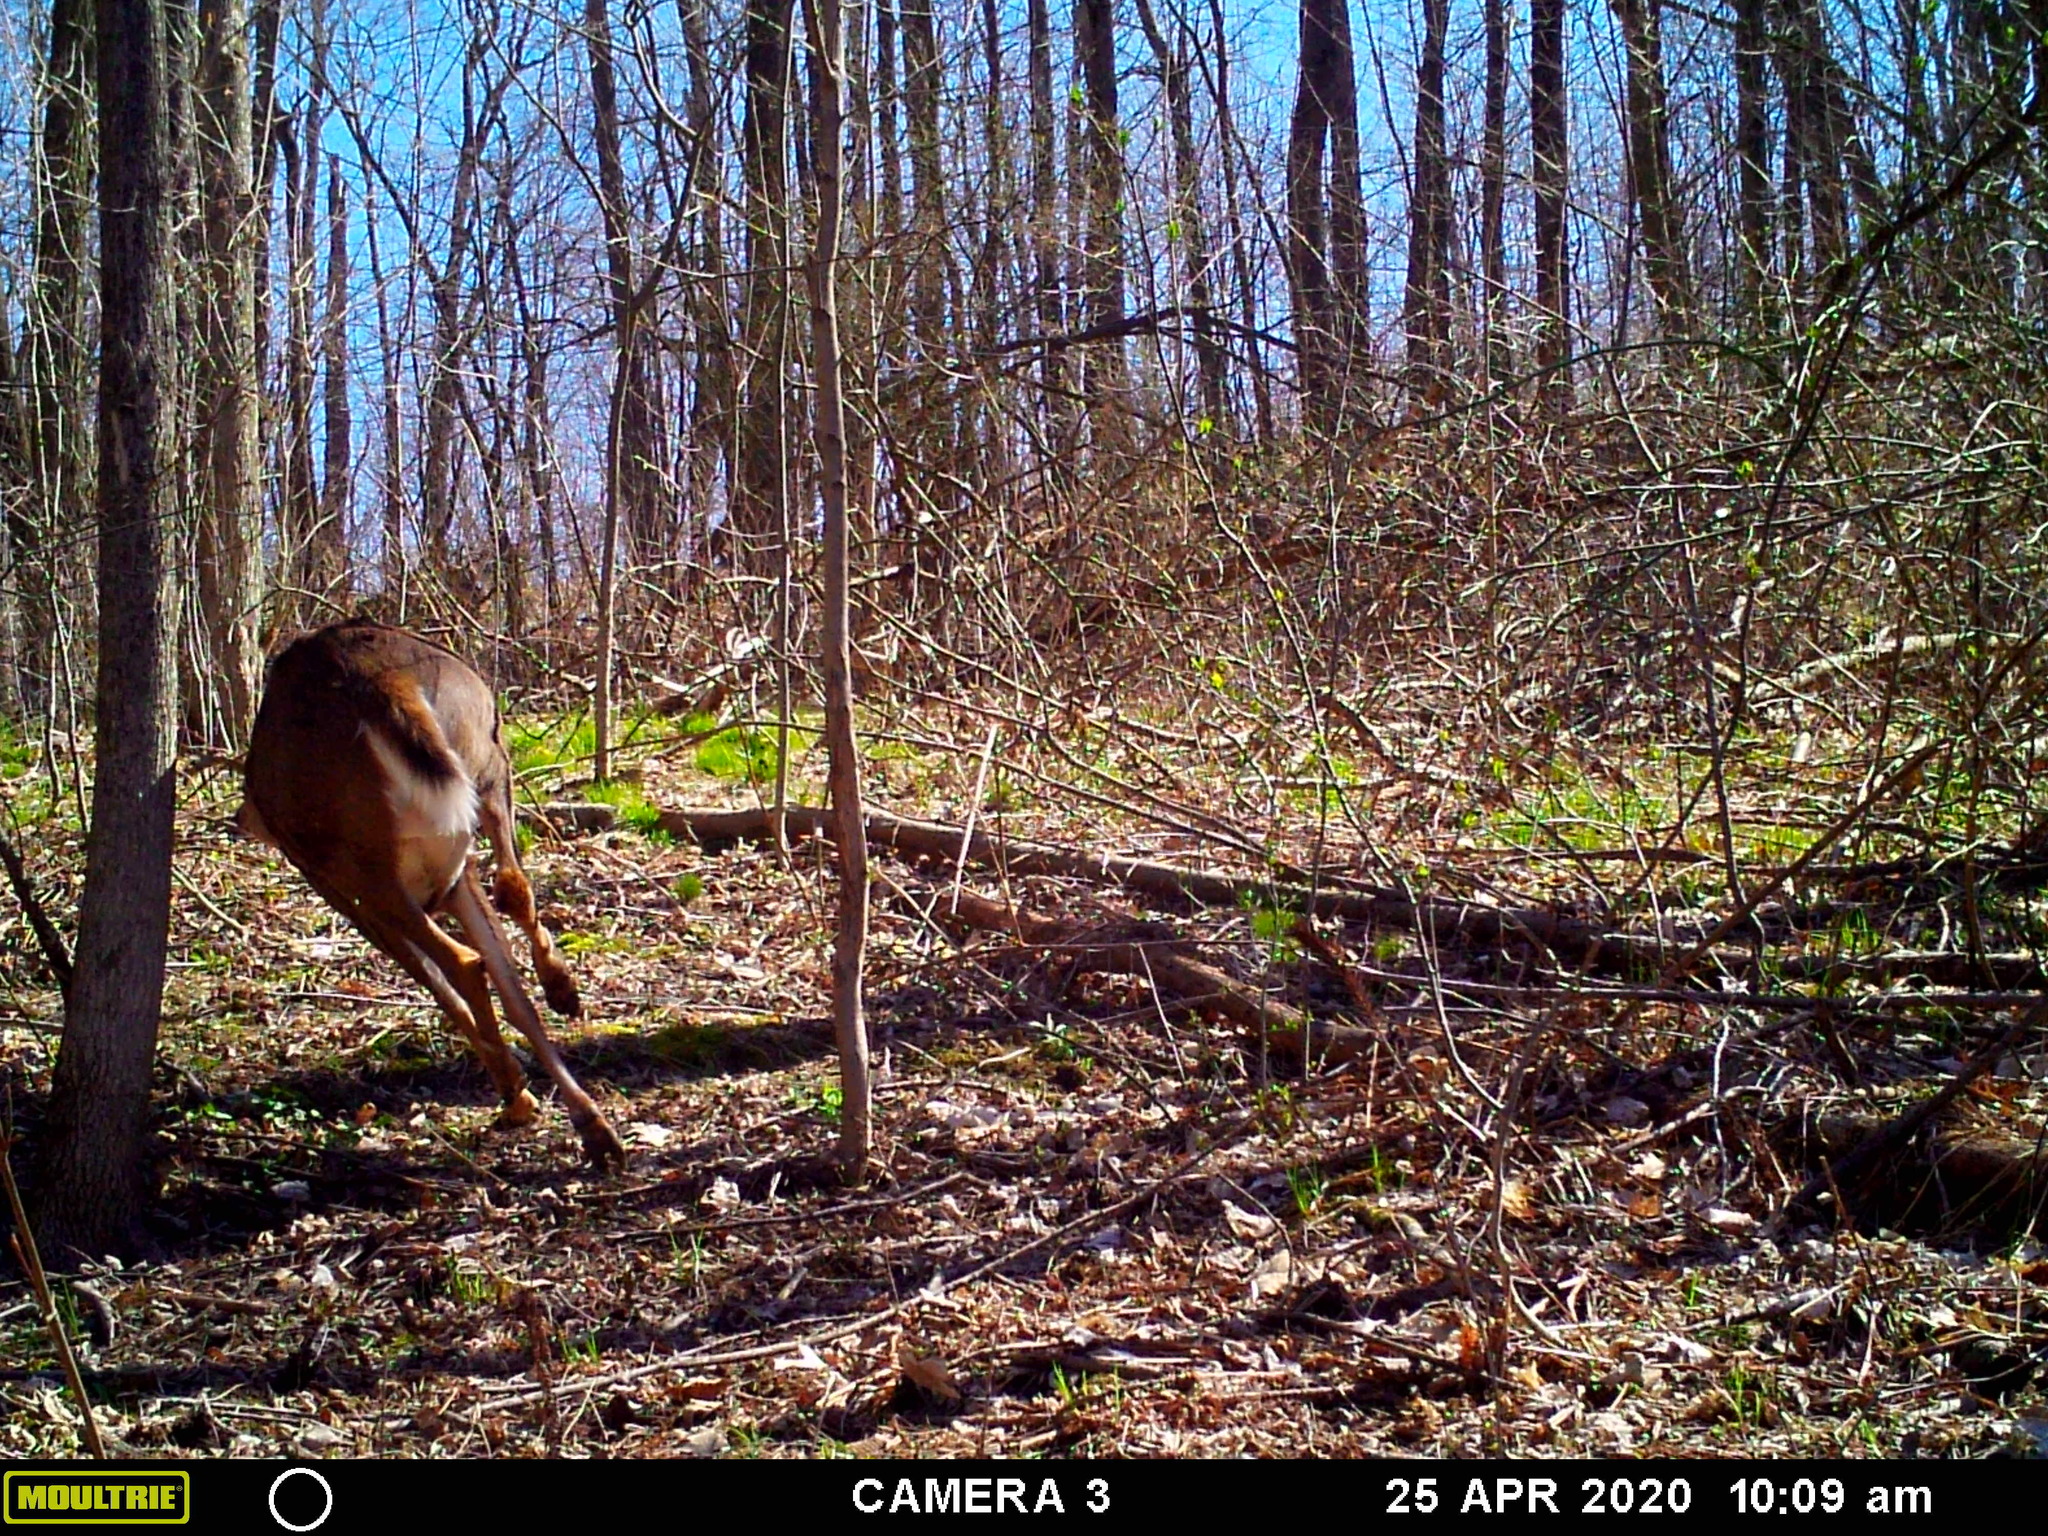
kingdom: Animalia
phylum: Chordata
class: Mammalia
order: Artiodactyla
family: Cervidae
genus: Odocoileus
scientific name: Odocoileus virginianus
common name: White-tailed deer
